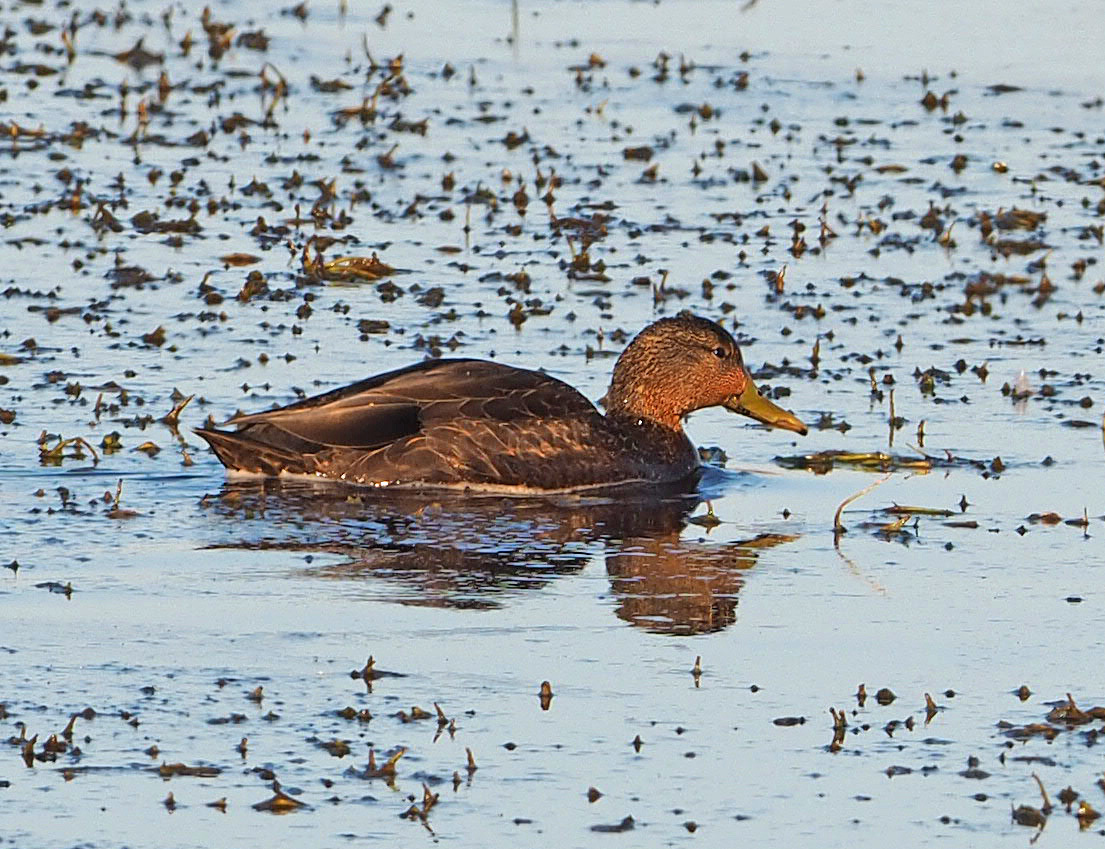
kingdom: Animalia
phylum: Chordata
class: Aves
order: Anseriformes
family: Anatidae
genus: Anas
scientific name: Anas rubripes
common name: American black duck
